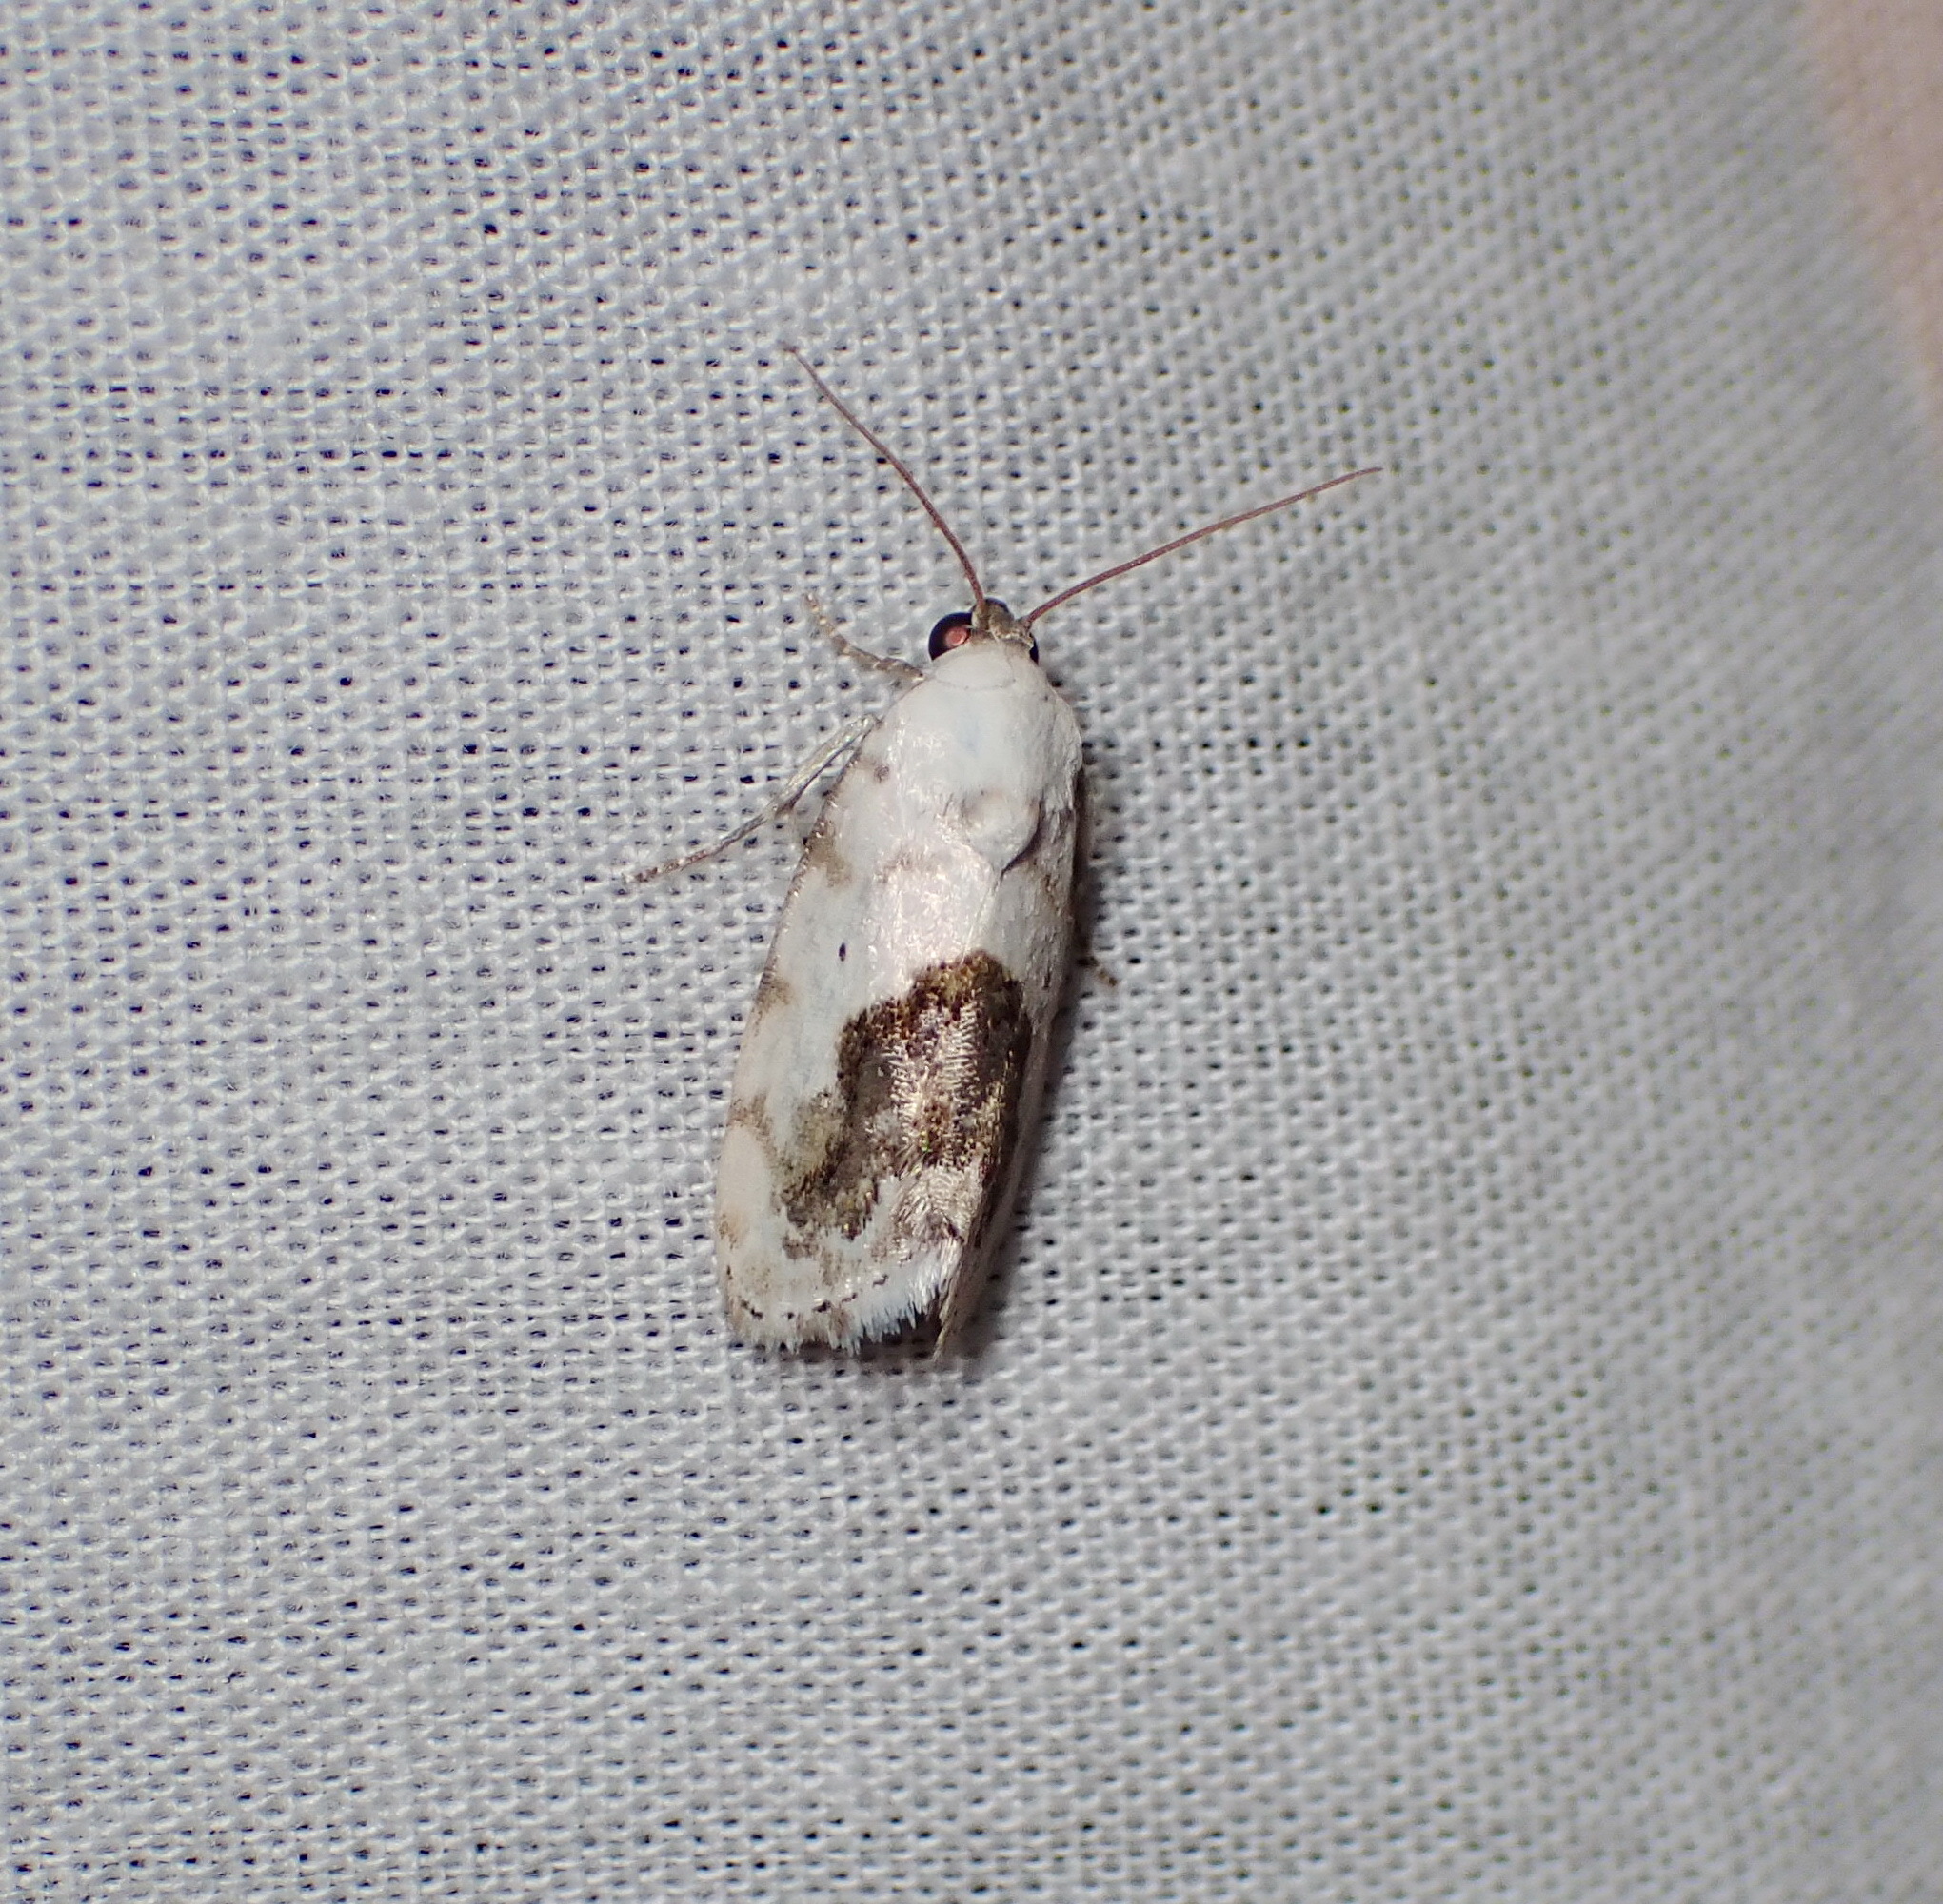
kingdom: Animalia
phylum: Arthropoda
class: Insecta
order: Lepidoptera
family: Noctuidae
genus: Acontia
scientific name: Acontia erastrioides
